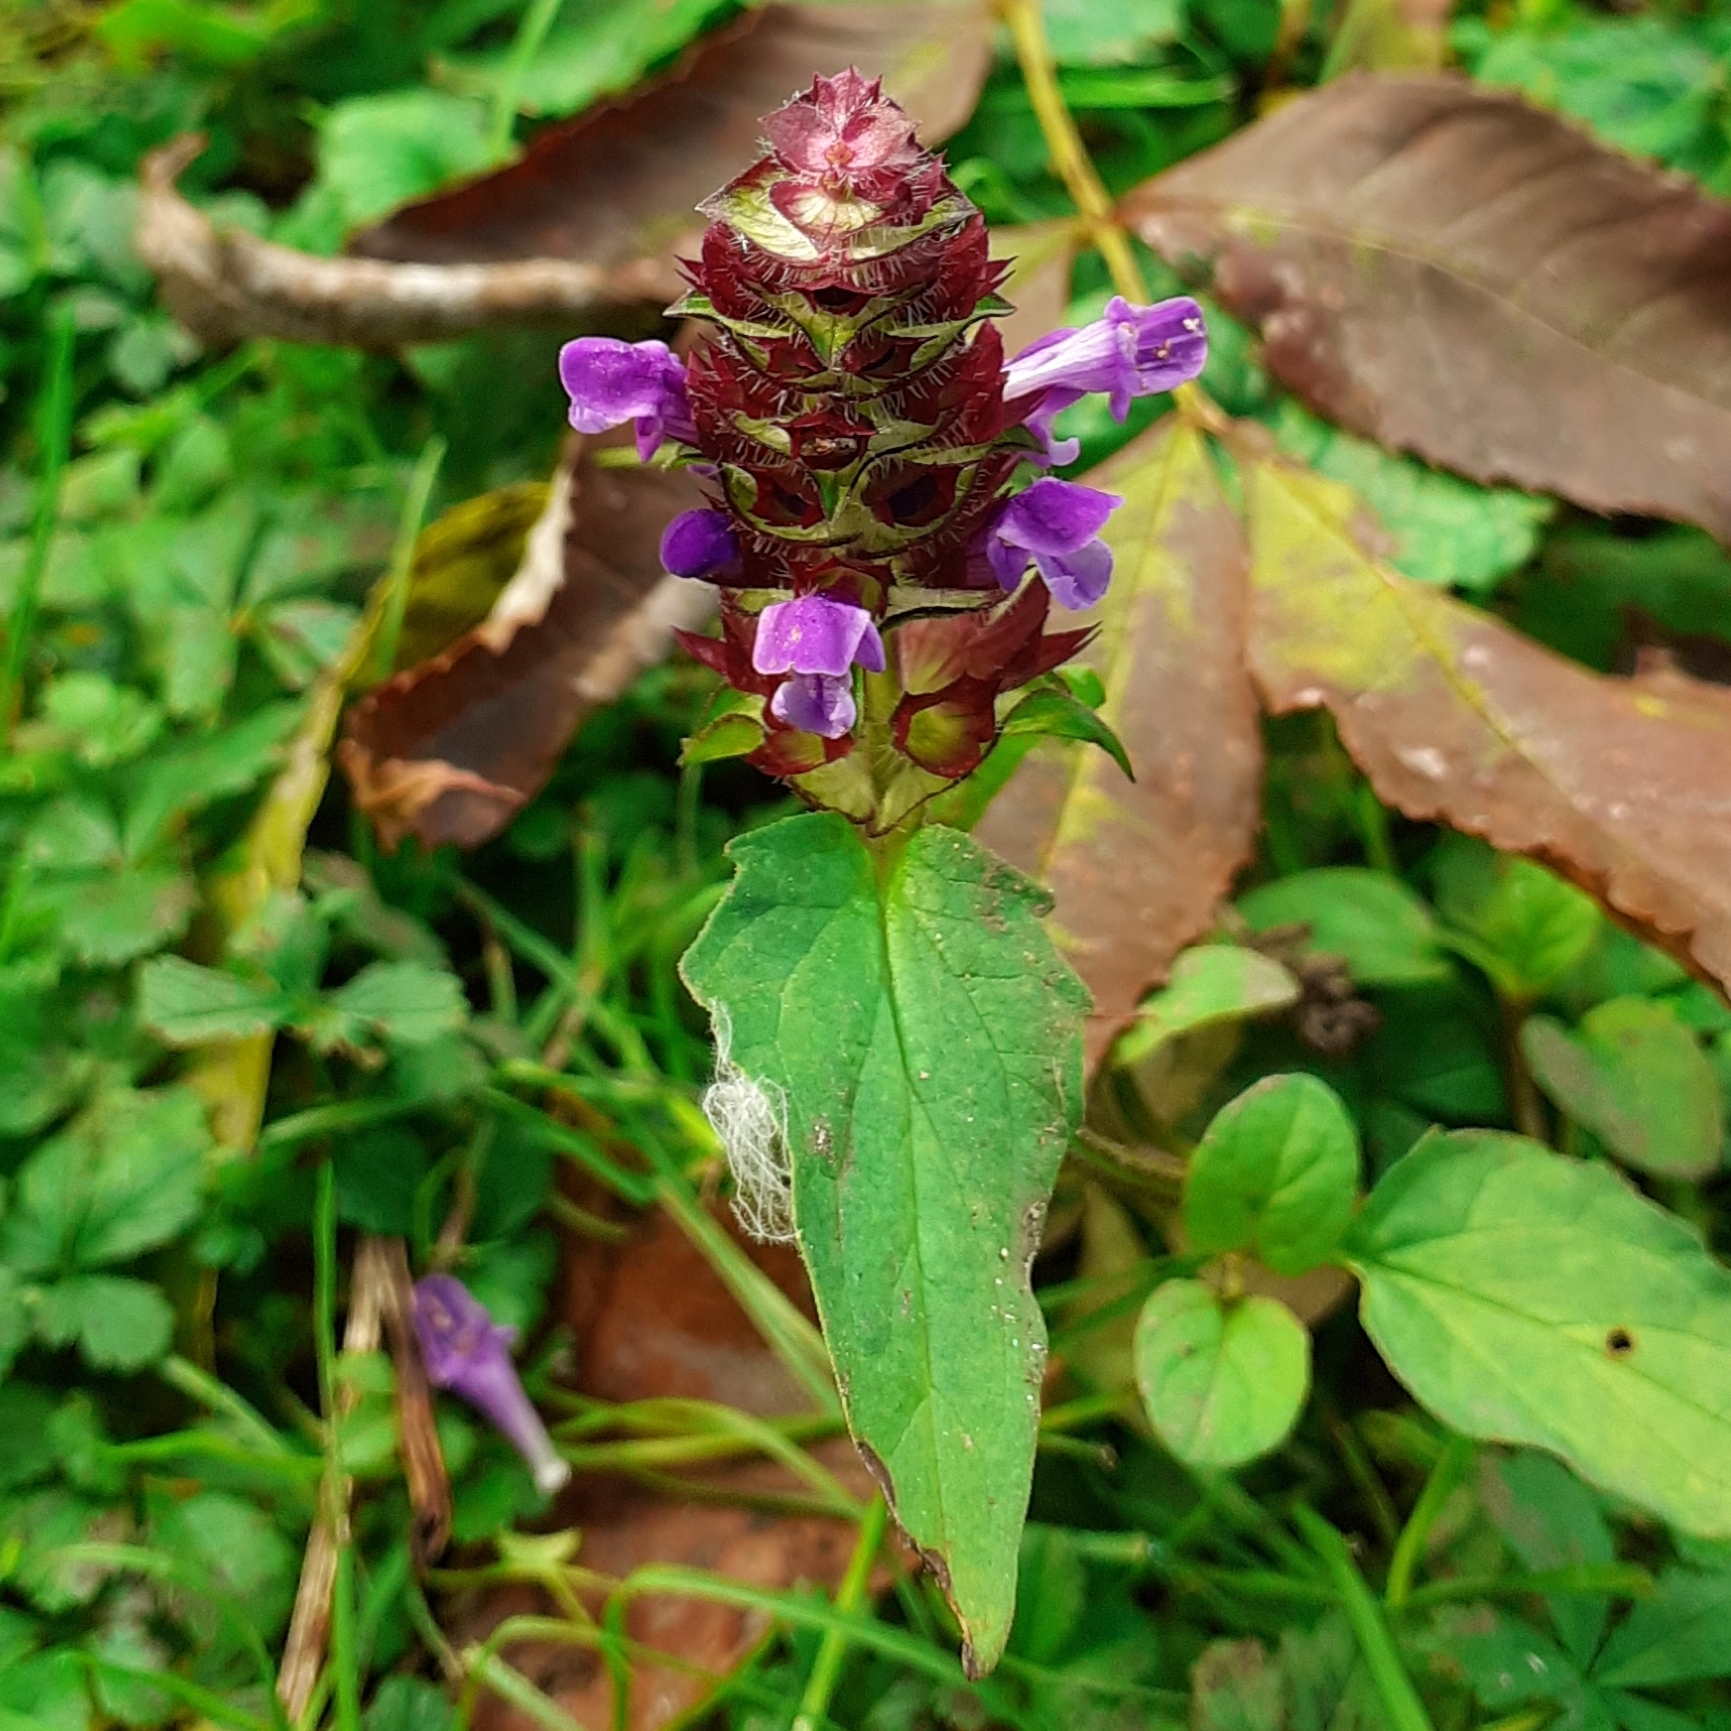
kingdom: Plantae
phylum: Tracheophyta
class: Magnoliopsida
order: Lamiales
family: Lamiaceae
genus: Prunella
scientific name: Prunella vulgaris
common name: Heal-all
